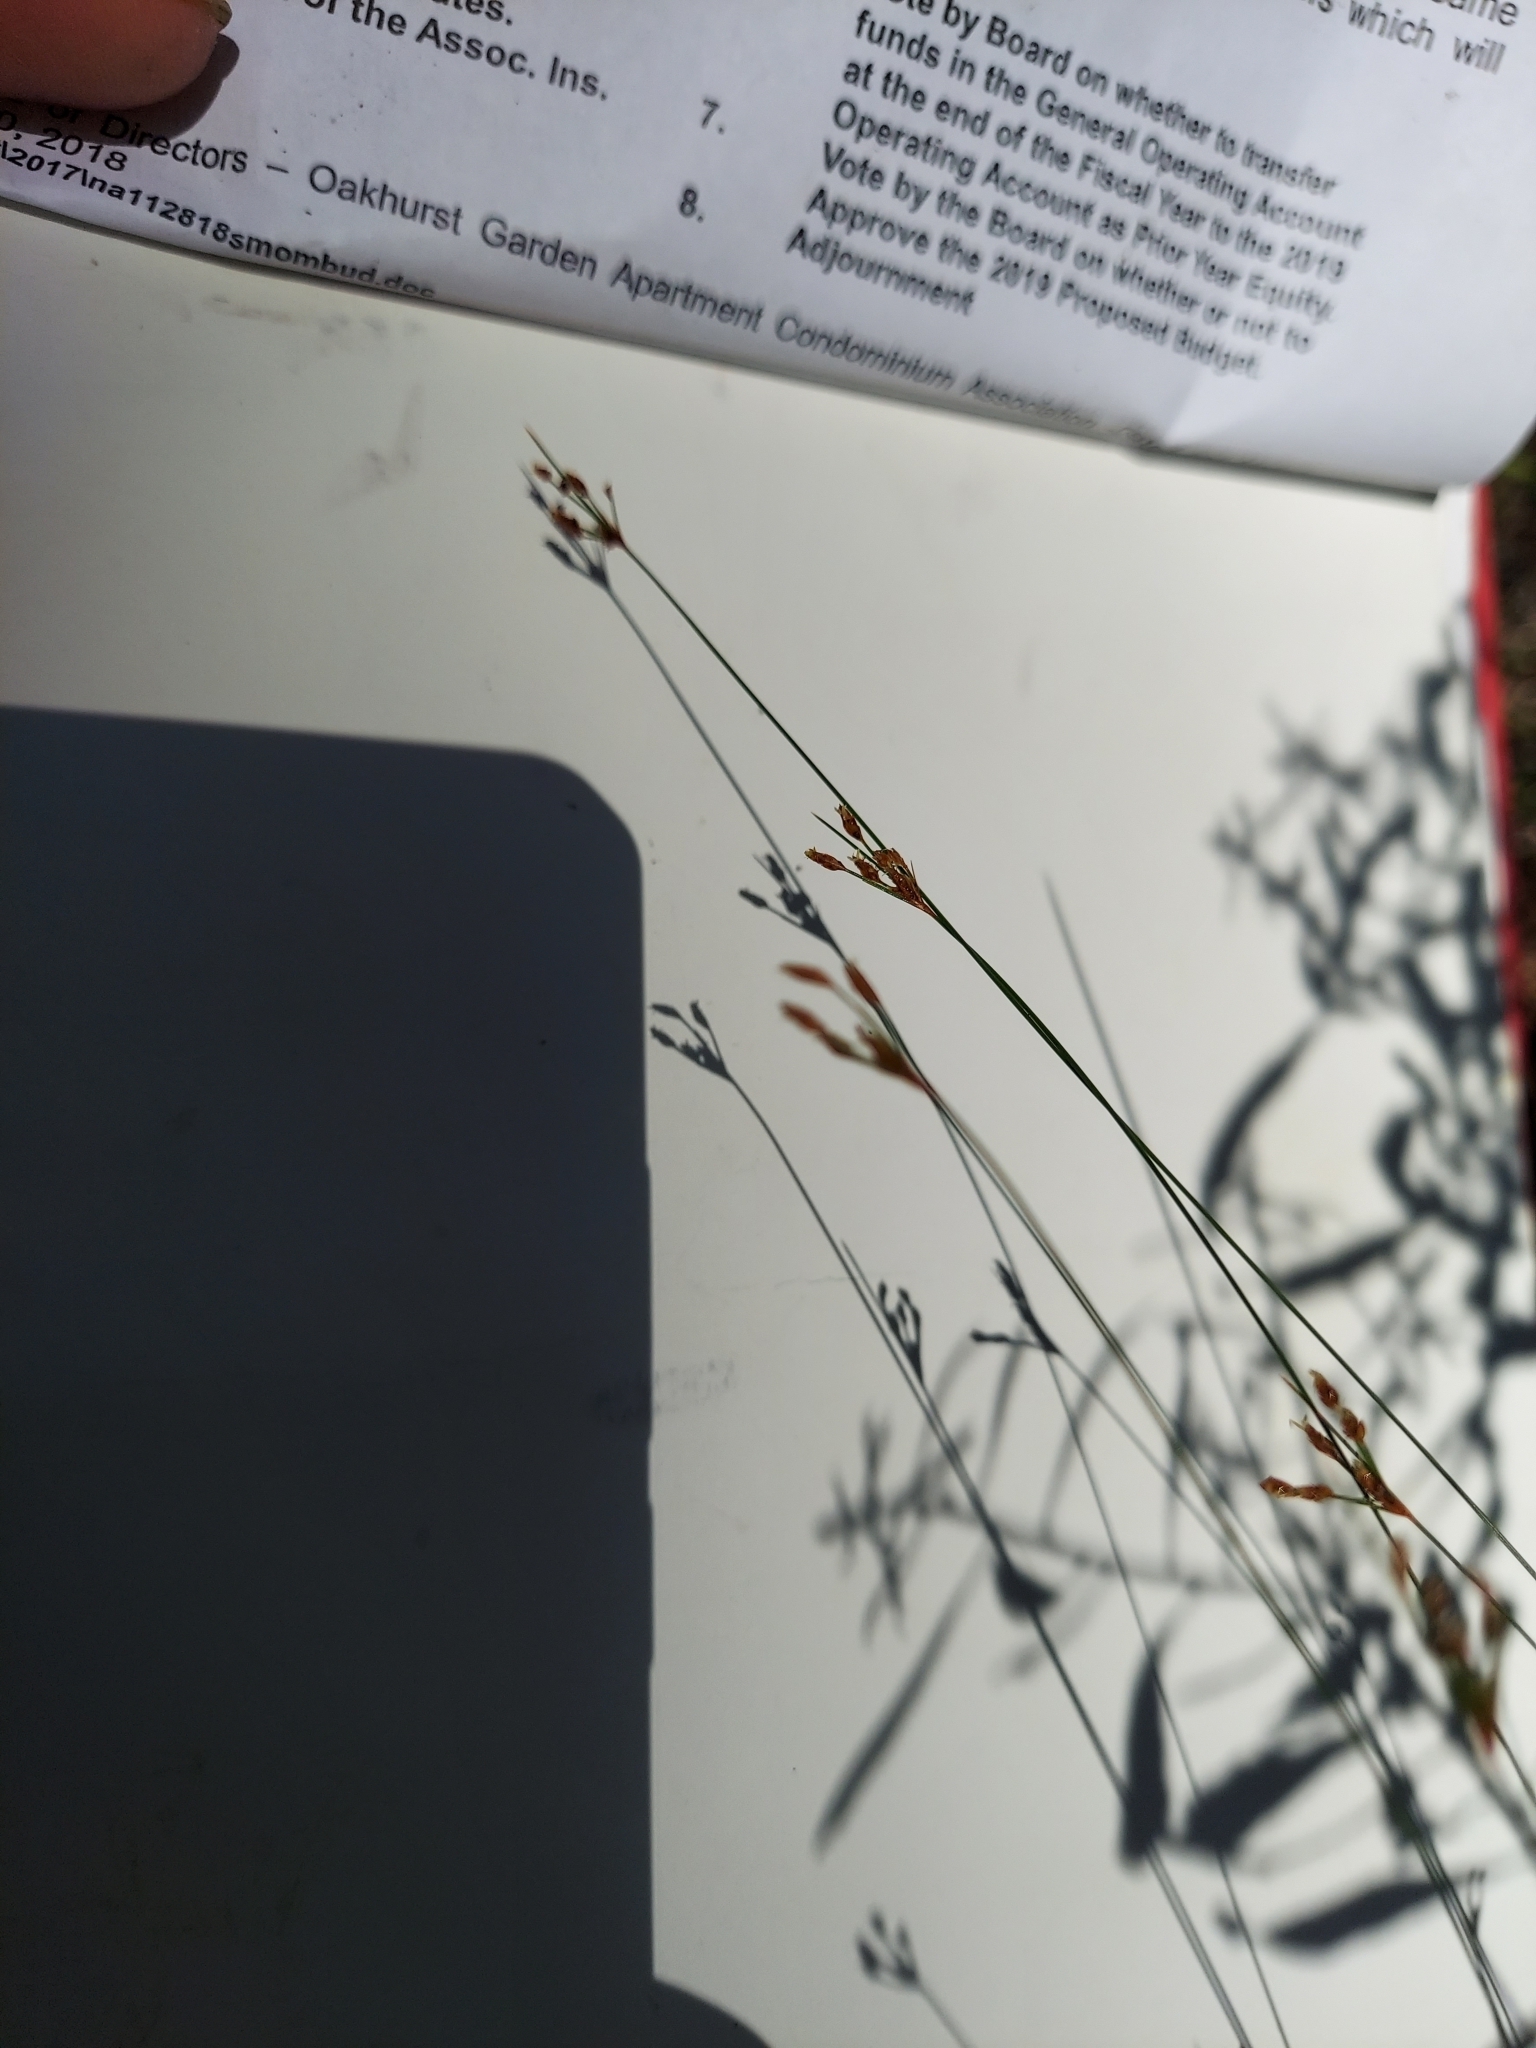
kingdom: Plantae
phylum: Tracheophyta
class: Liliopsida
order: Poales
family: Cyperaceae
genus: Bulbostylis
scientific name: Bulbostylis ciliatifolia
